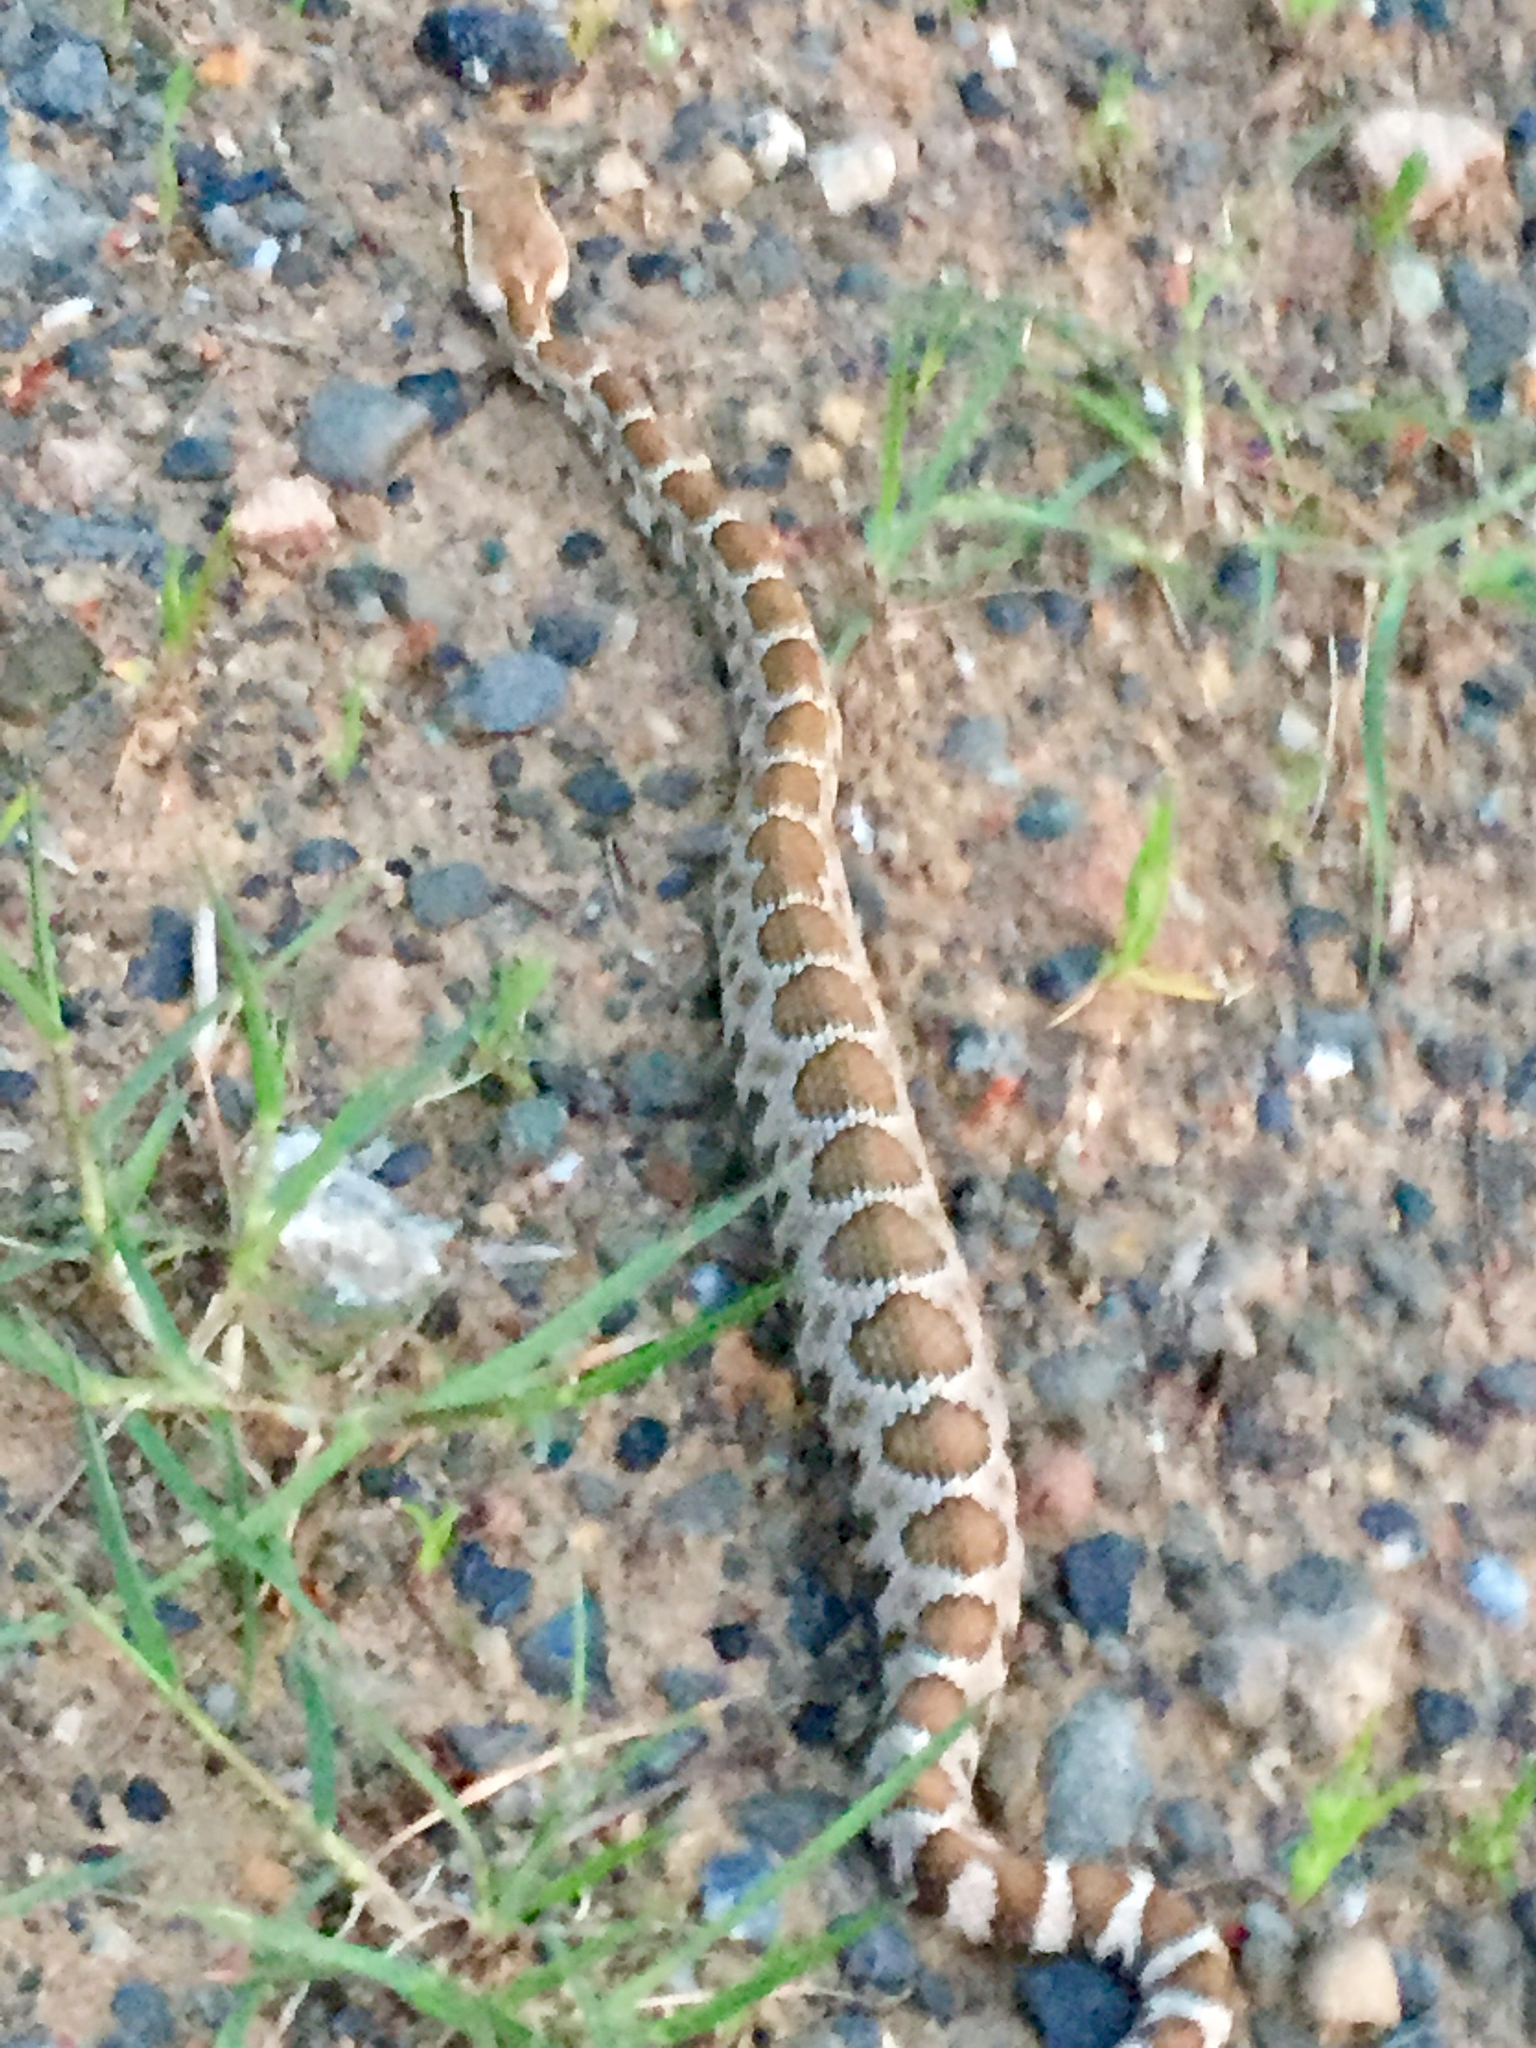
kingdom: Animalia
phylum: Chordata
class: Squamata
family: Viperidae
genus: Crotalus
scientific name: Crotalus oreganus
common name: Abyssus
